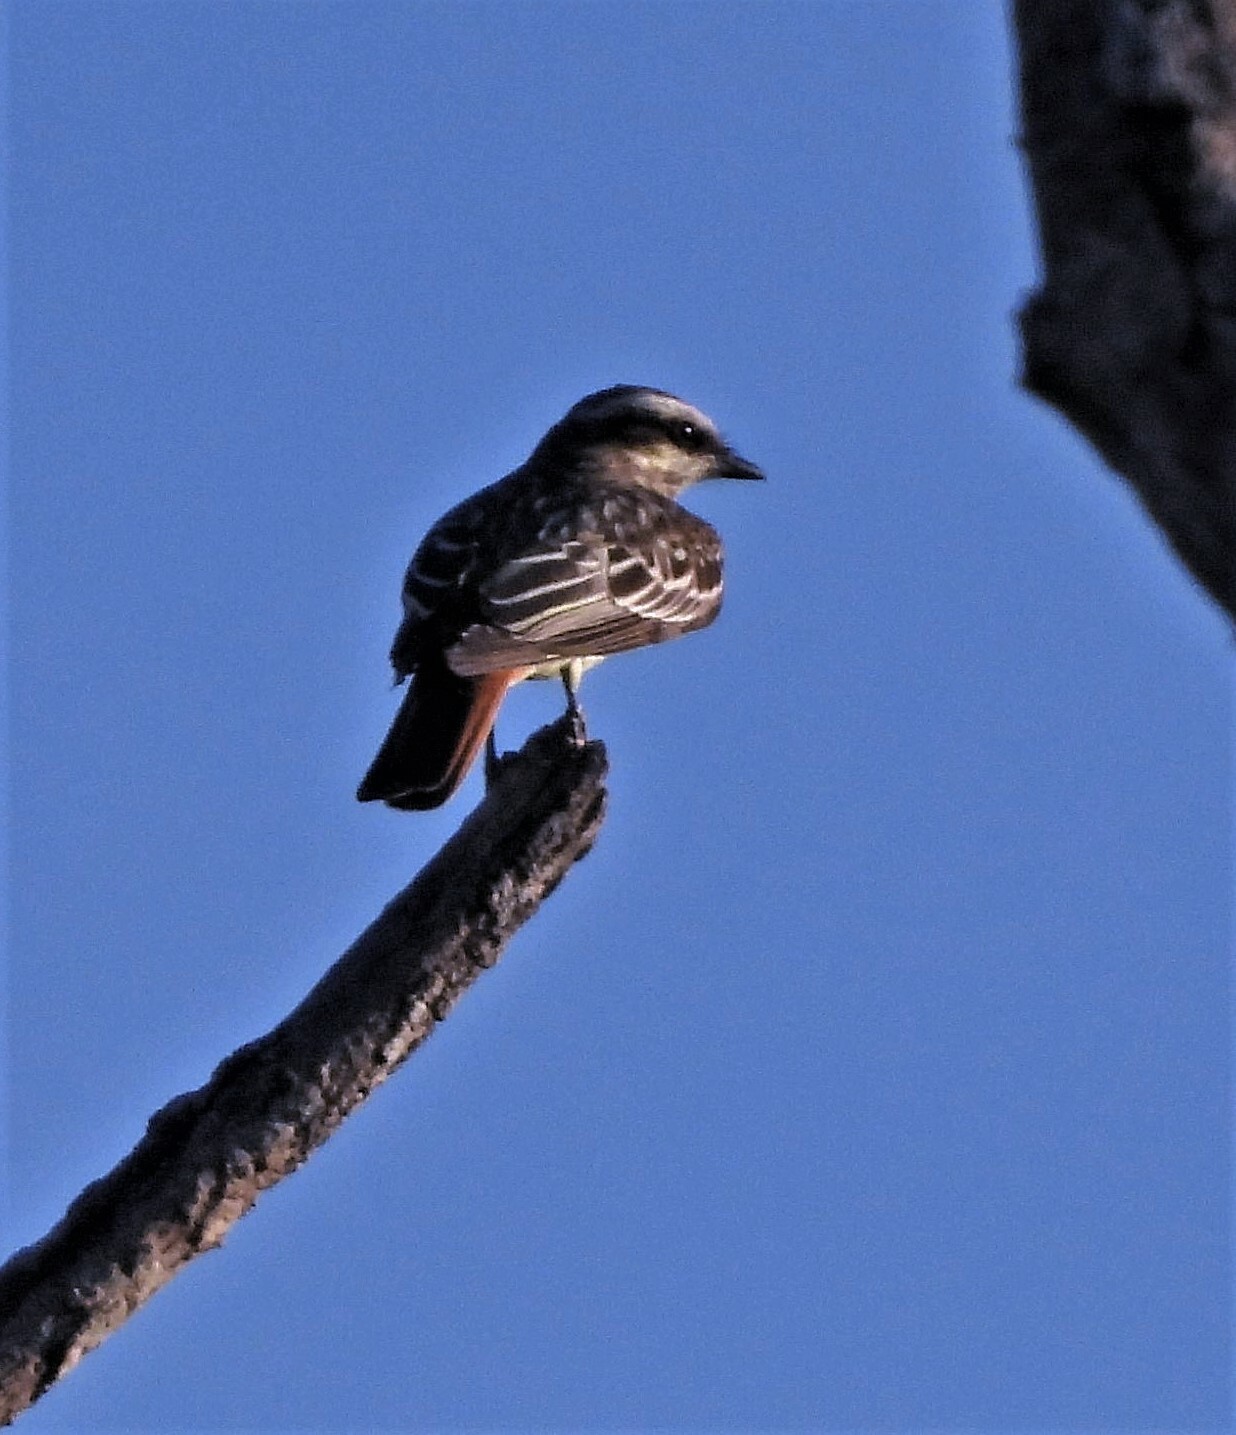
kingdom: Animalia
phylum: Chordata
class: Aves
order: Passeriformes
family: Tyrannidae
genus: Empidonomus
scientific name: Empidonomus varius
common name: Variegated flycatcher
